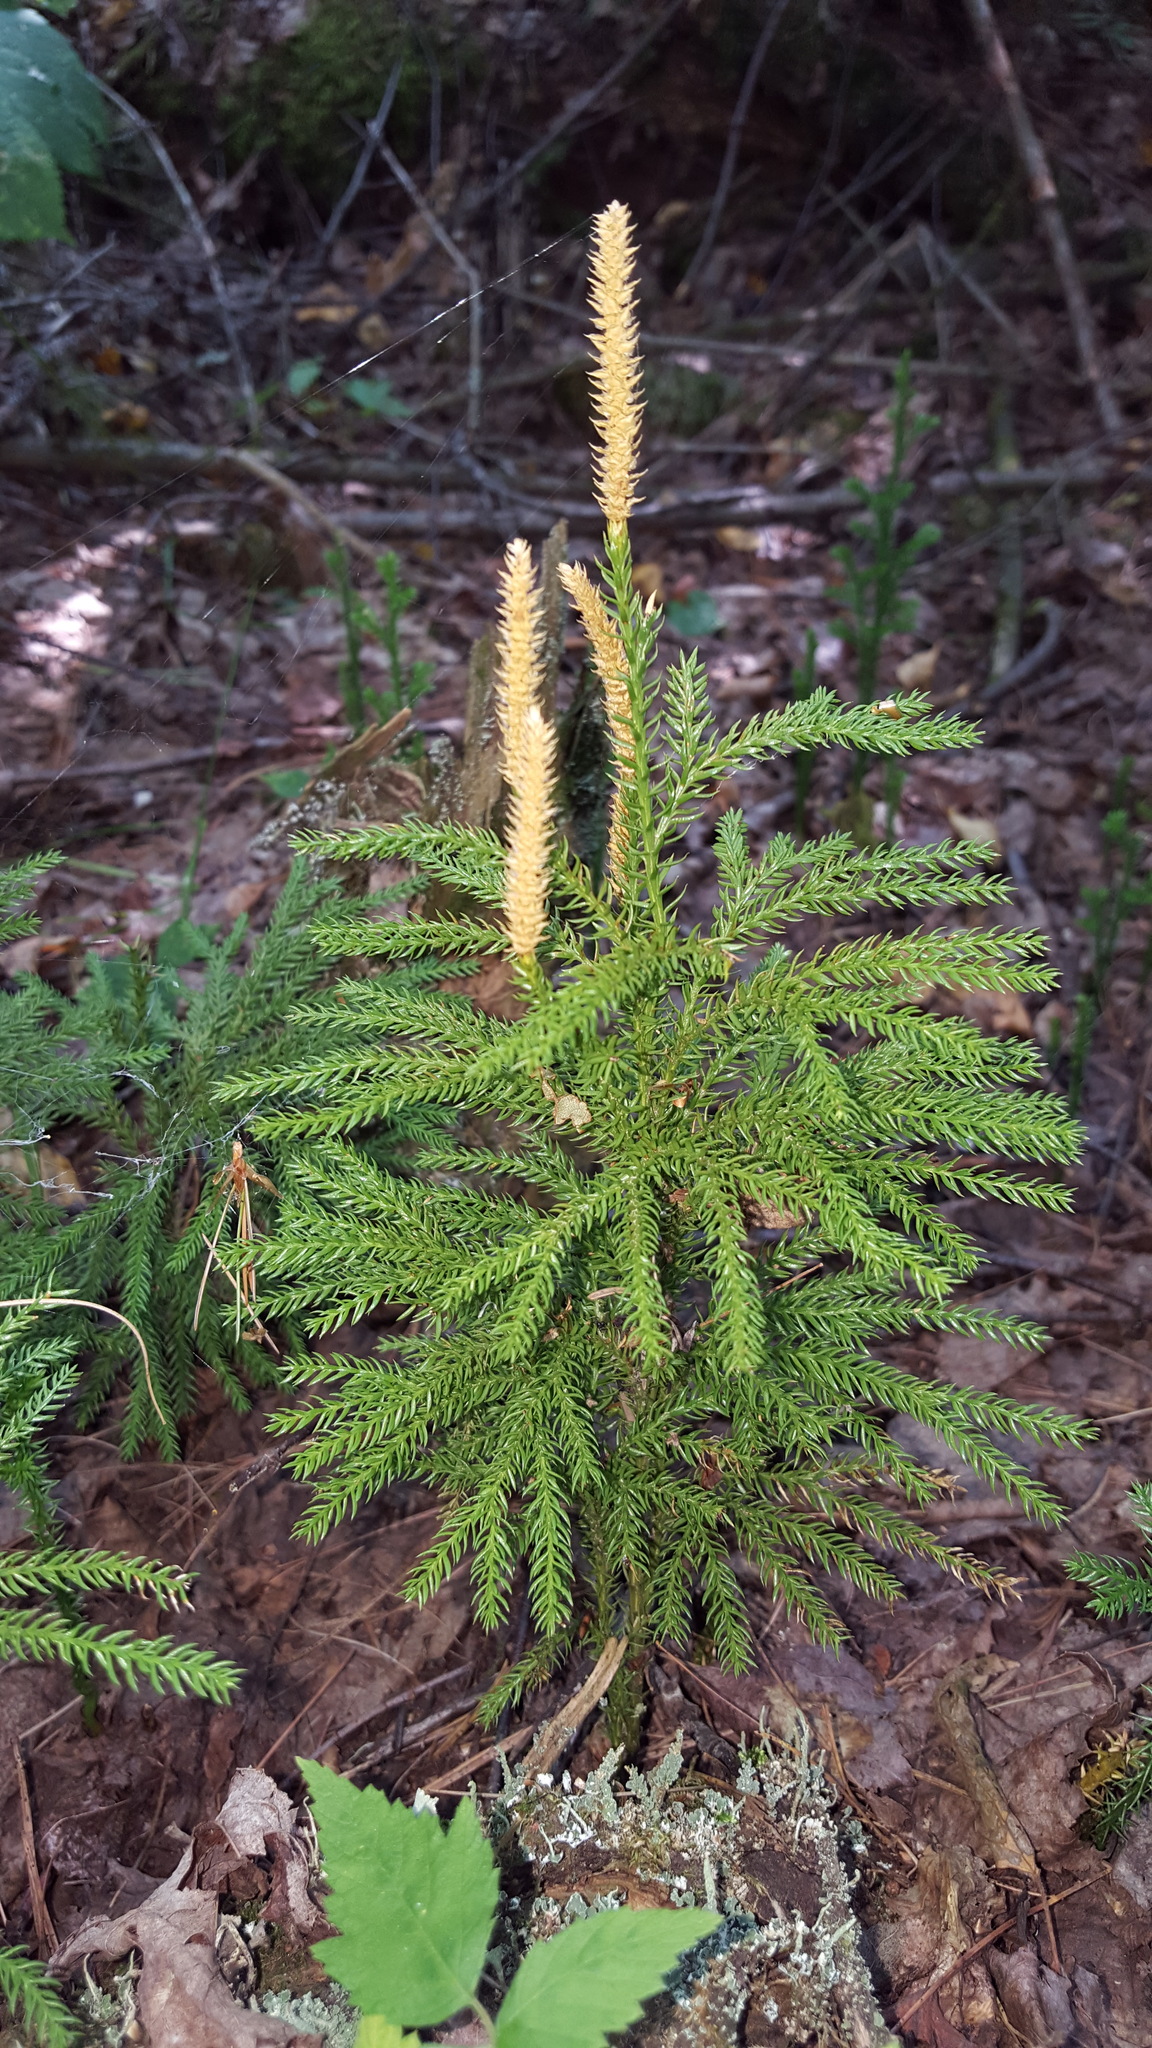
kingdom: Plantae
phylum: Tracheophyta
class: Lycopodiopsida
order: Lycopodiales
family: Lycopodiaceae
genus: Dendrolycopodium
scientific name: Dendrolycopodium dendroideum
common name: Northern tree-clubmoss
